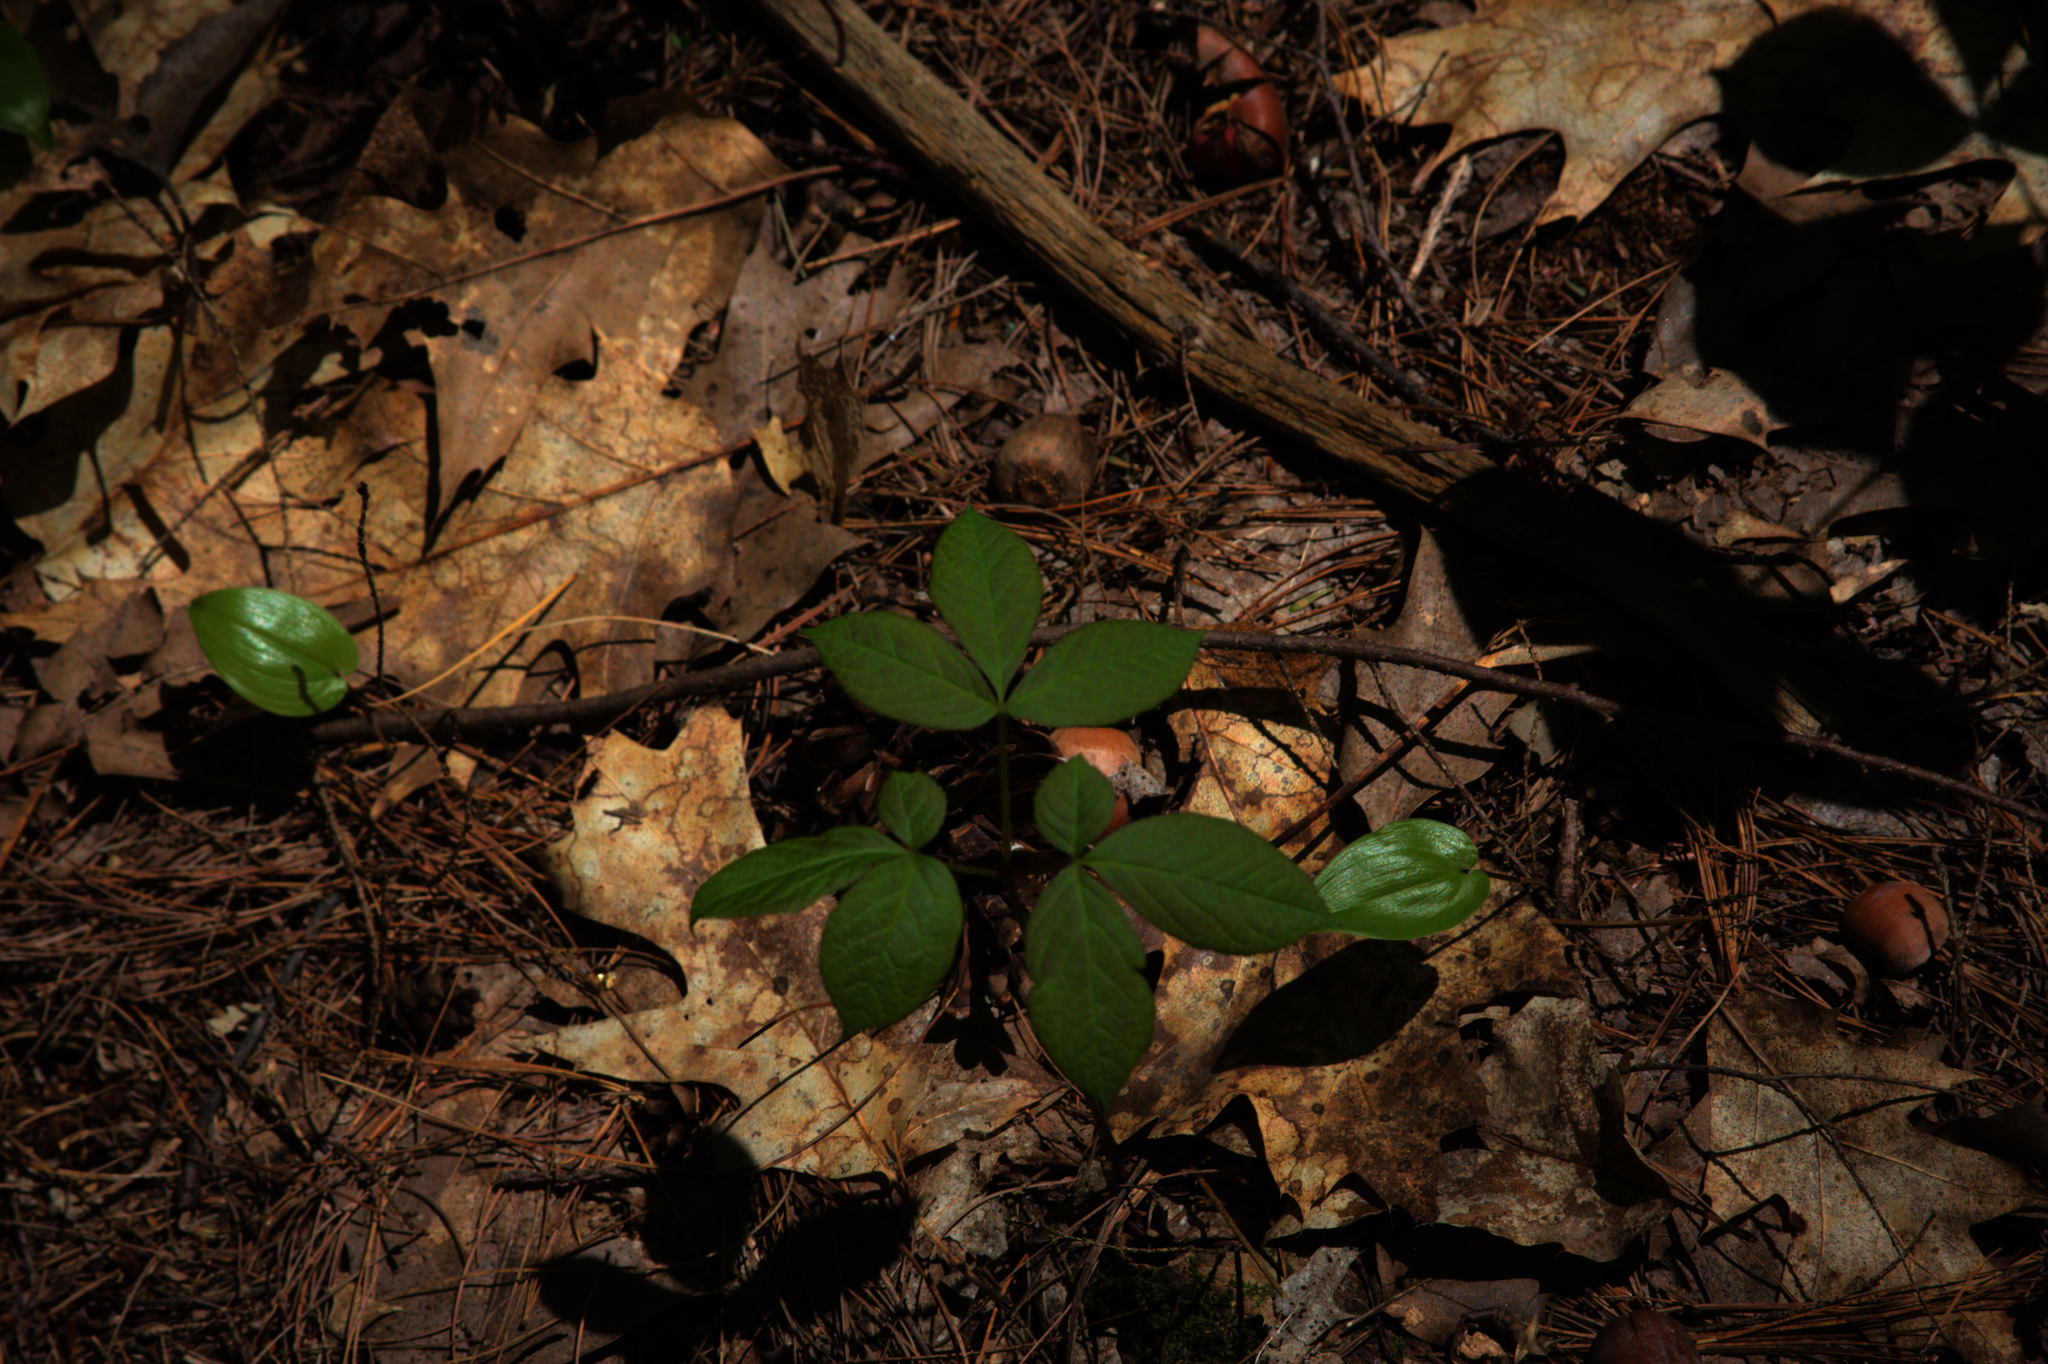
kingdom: Plantae
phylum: Tracheophyta
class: Liliopsida
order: Asparagales
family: Asparagaceae
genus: Maianthemum
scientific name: Maianthemum canadense
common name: False lily-of-the-valley
